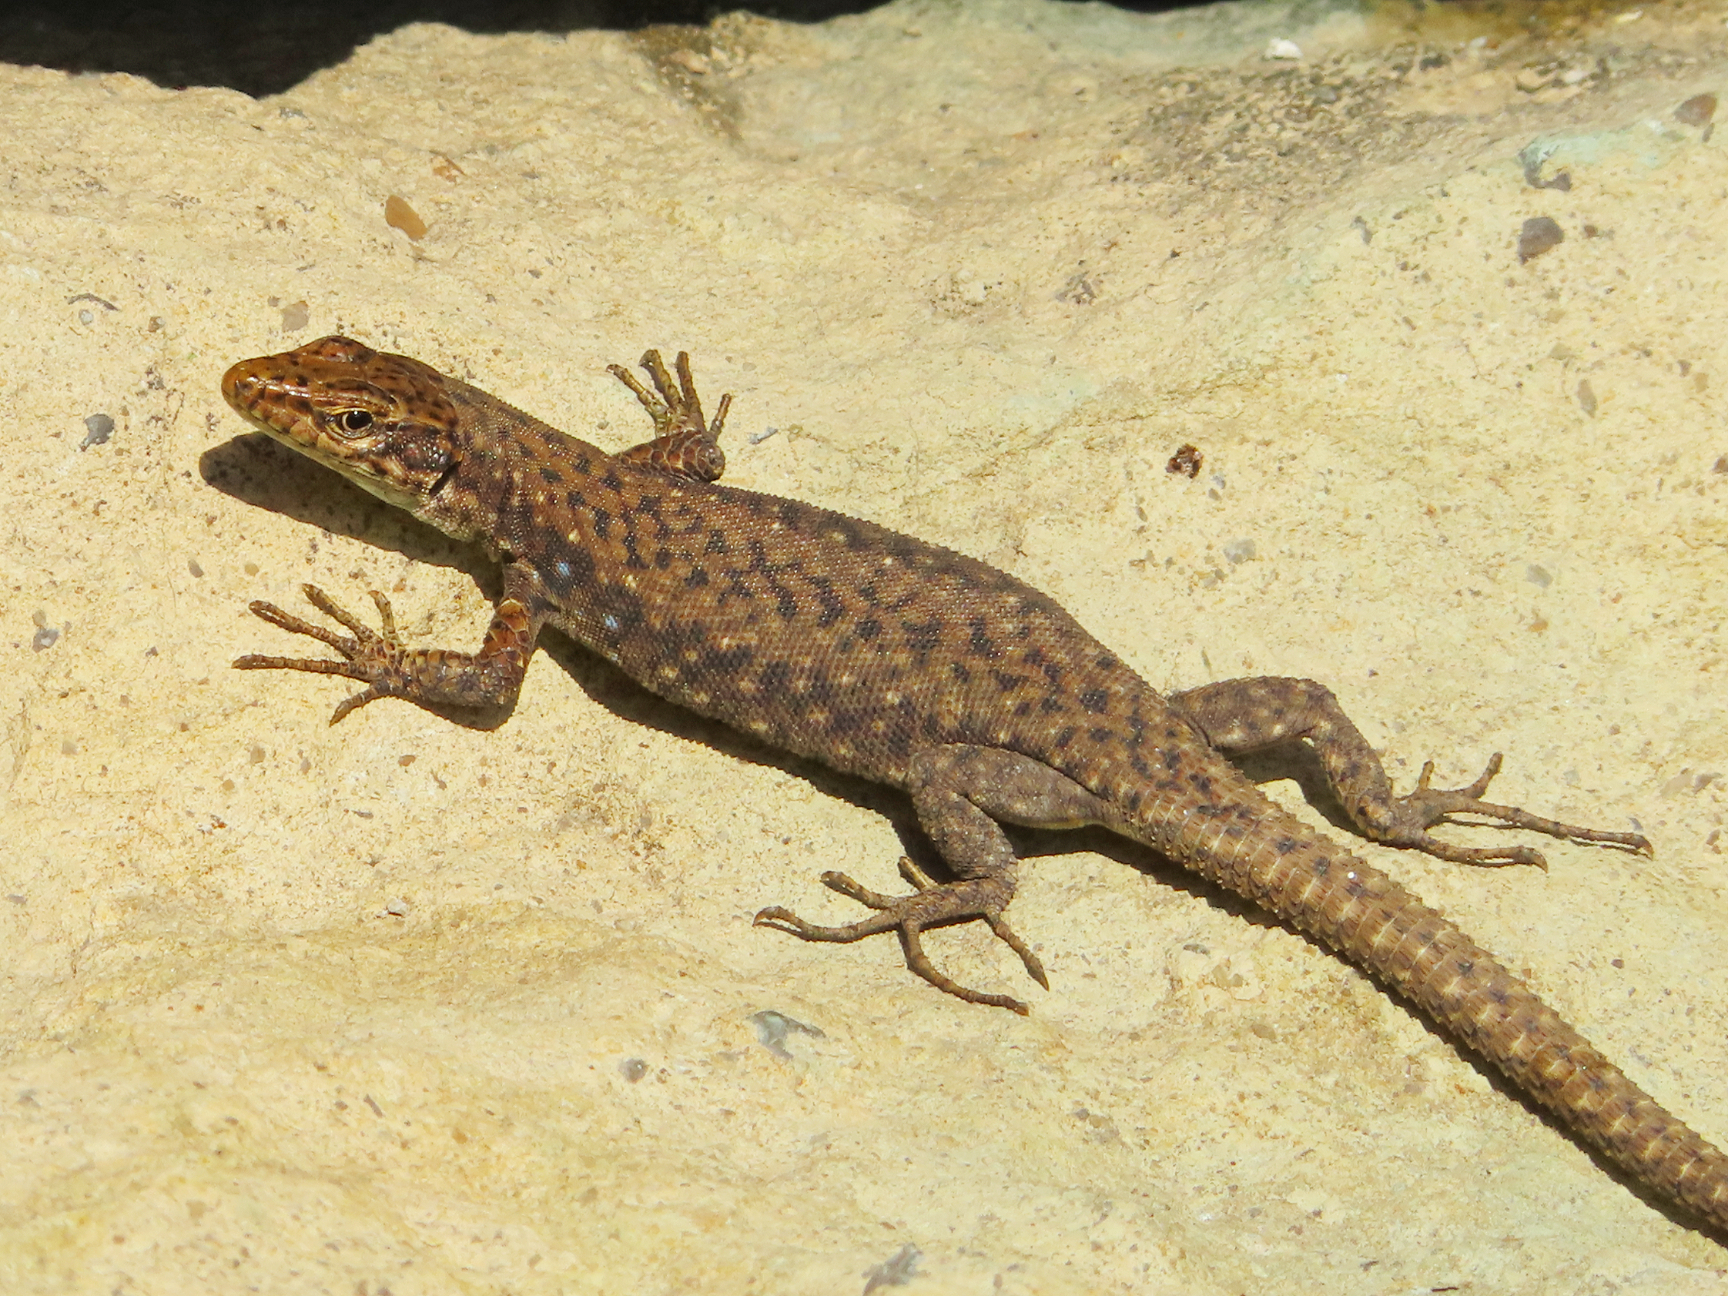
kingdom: Animalia
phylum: Chordata
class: Squamata
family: Lacertidae
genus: Darevskia
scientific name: Darevskia rudis
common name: Spiny-tailed lizard
